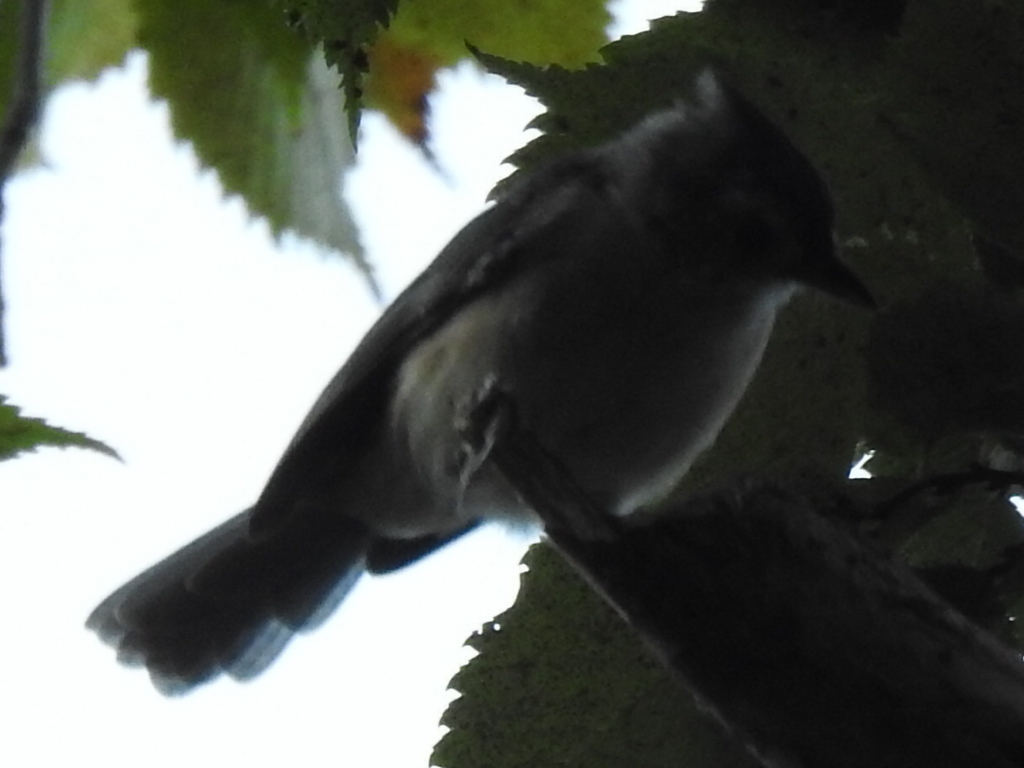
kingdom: Animalia
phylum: Chordata
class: Aves
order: Passeriformes
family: Paridae
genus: Baeolophus
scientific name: Baeolophus bicolor
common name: Tufted titmouse
